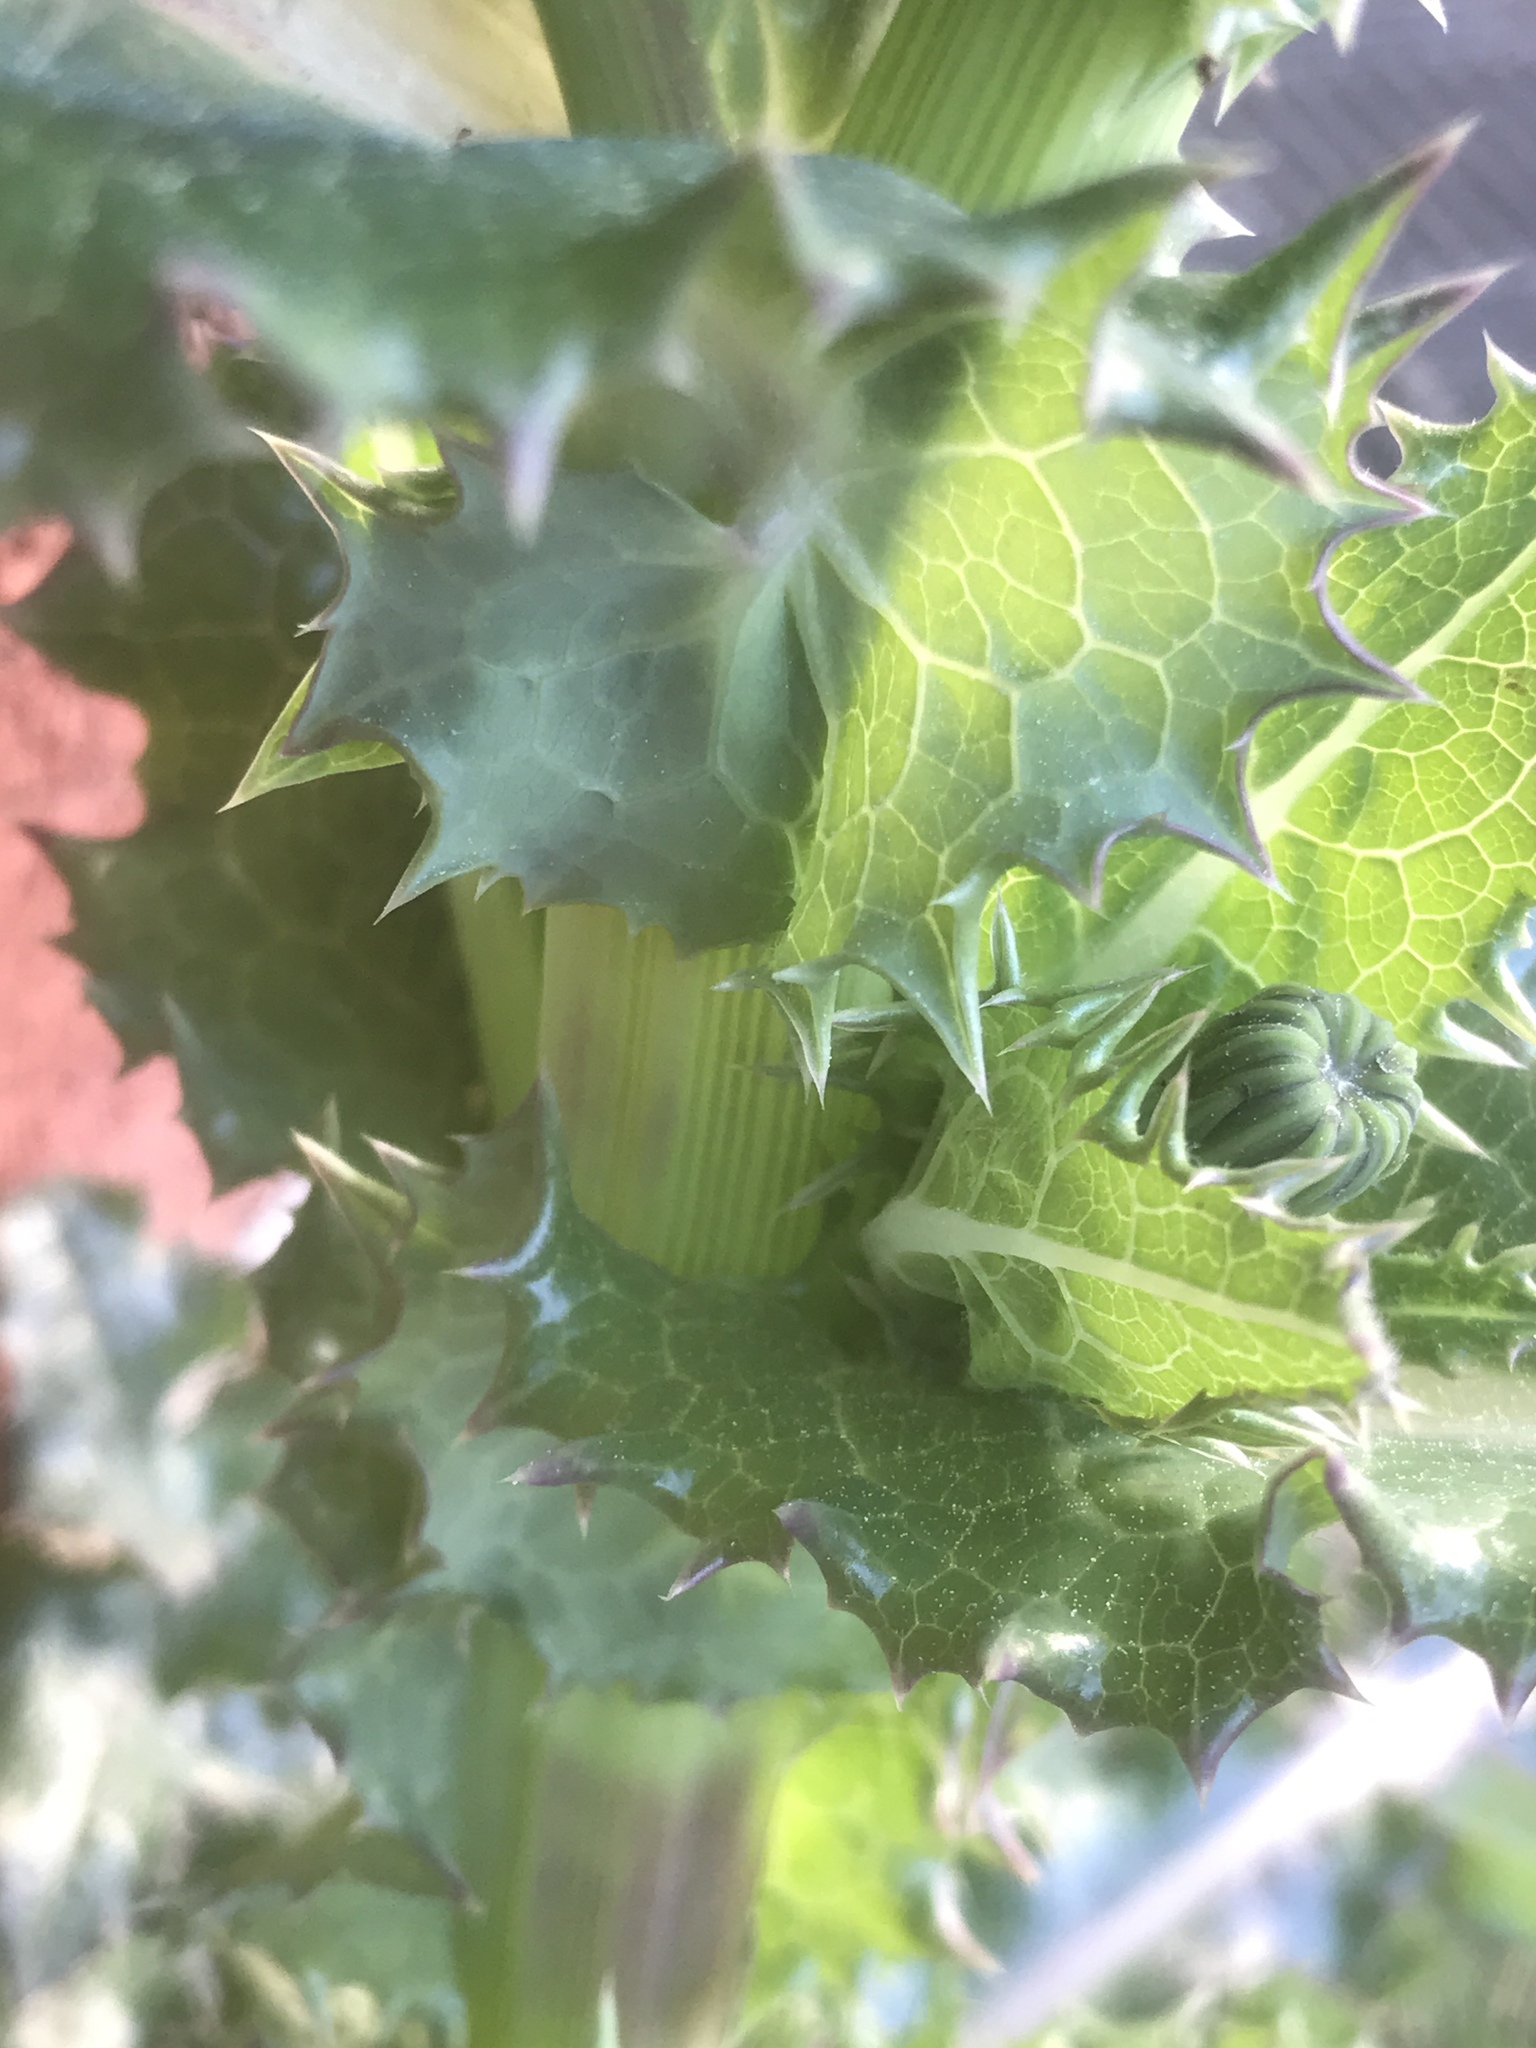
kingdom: Plantae
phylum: Tracheophyta
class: Magnoliopsida
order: Asterales
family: Asteraceae
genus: Sonchus
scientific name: Sonchus asper
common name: Prickly sow-thistle
